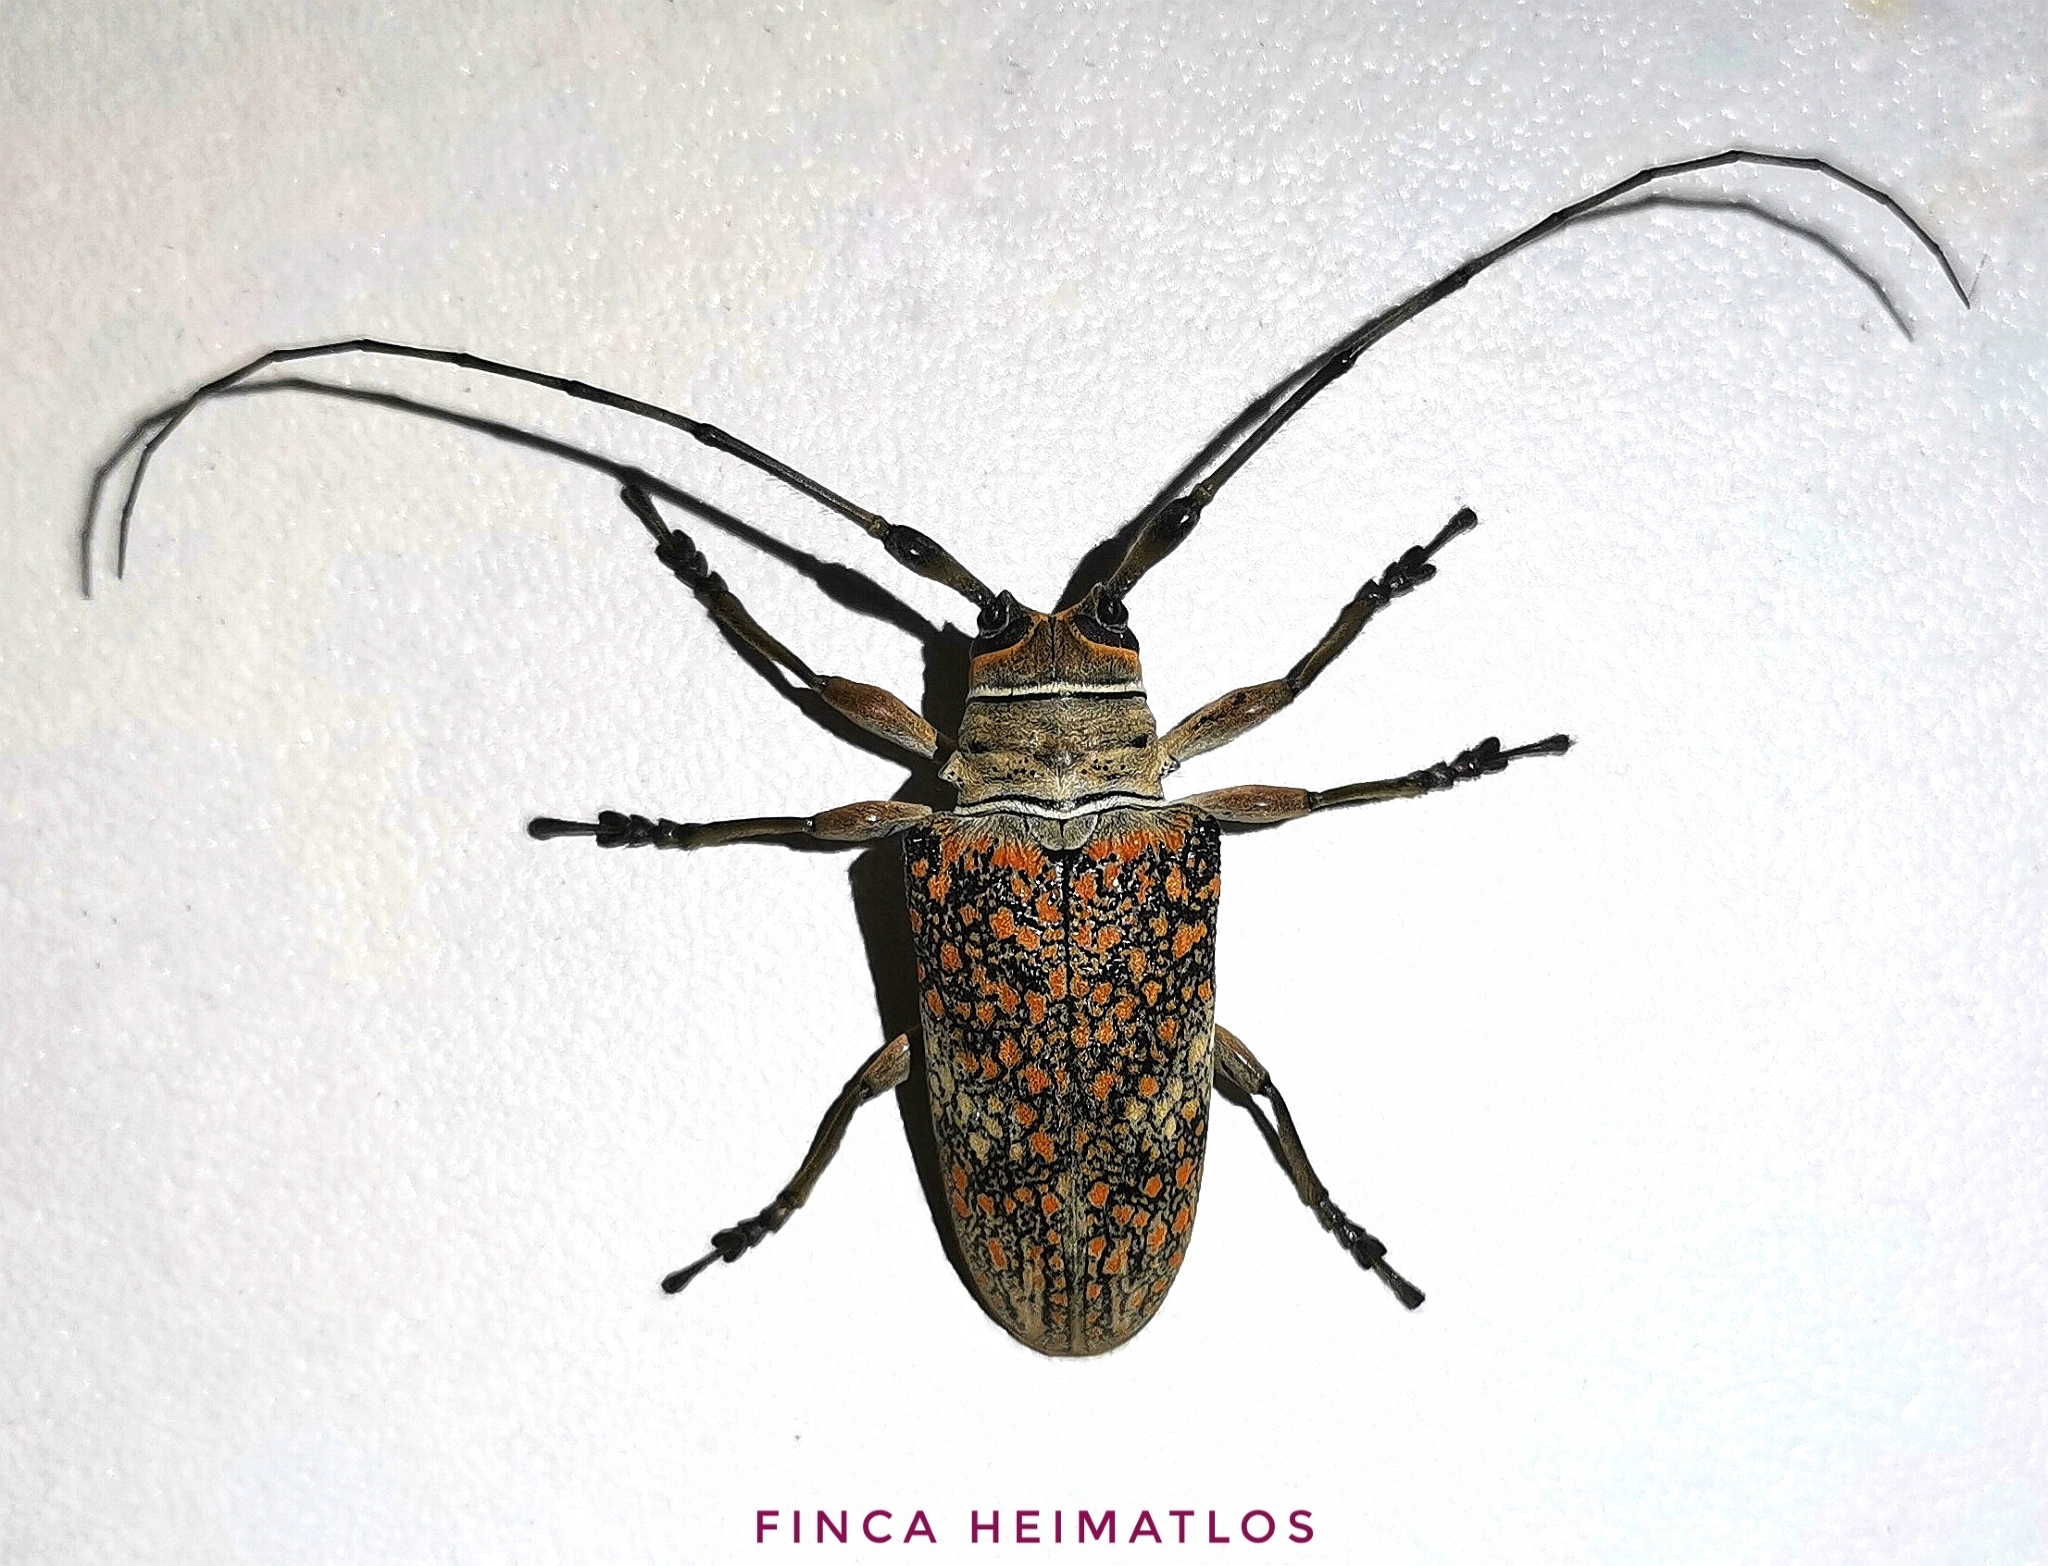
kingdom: Animalia
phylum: Arthropoda
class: Insecta
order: Coleoptera
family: Cerambycidae
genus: Lochmaeocles
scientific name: Lochmaeocles callidryas
